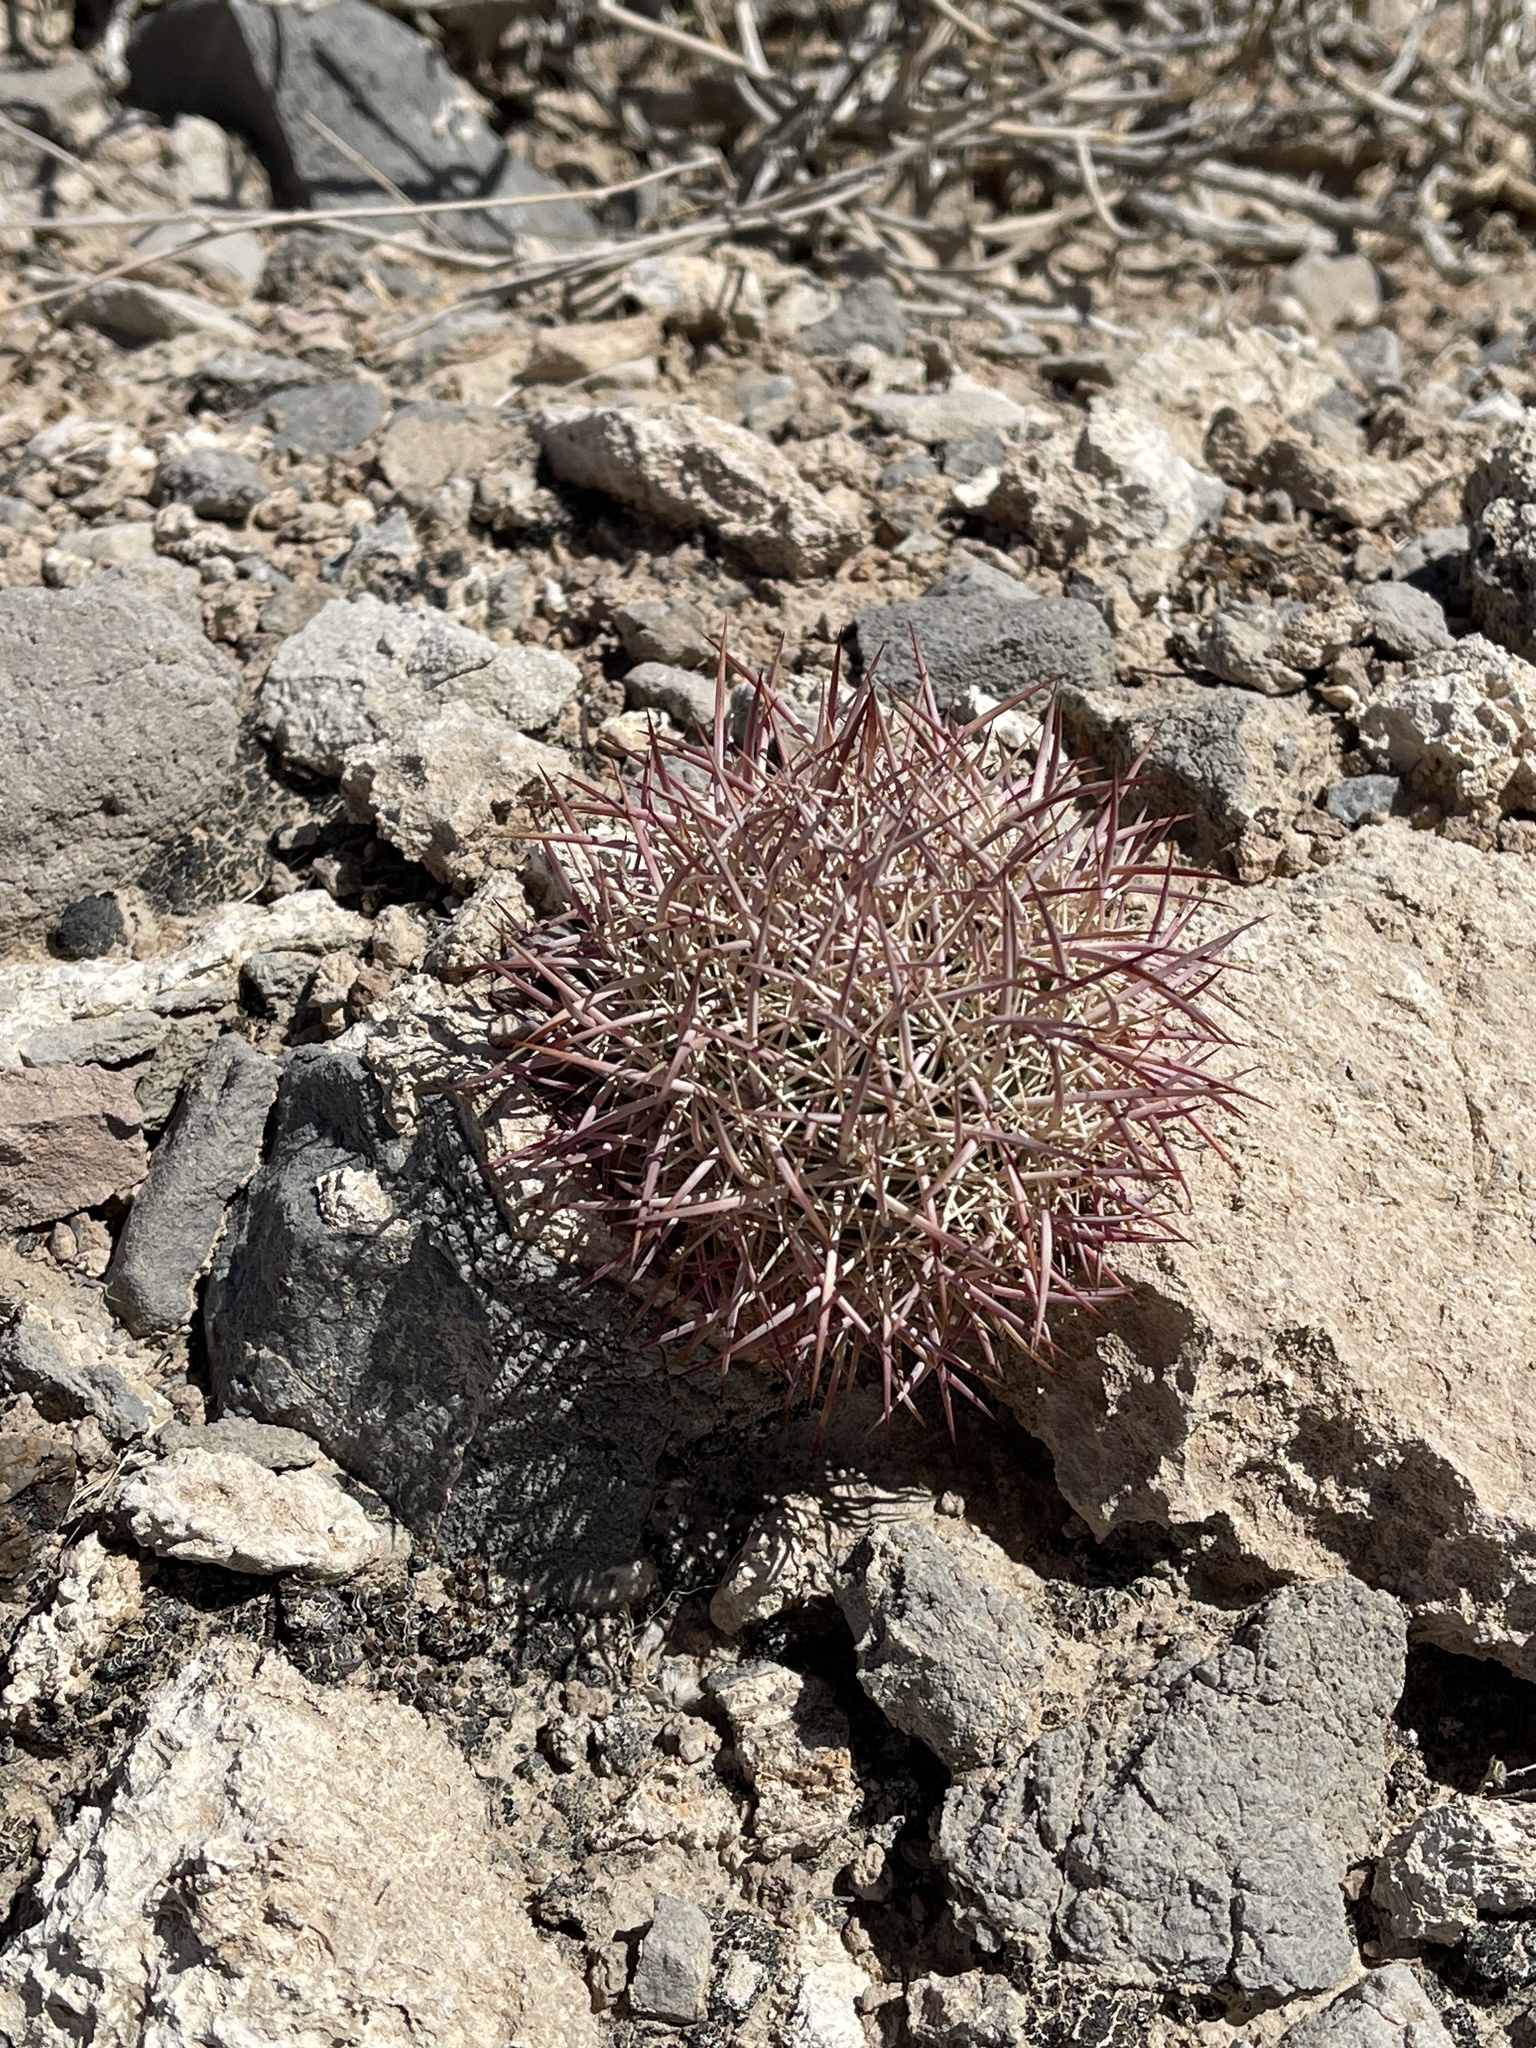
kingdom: Plantae
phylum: Tracheophyta
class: Magnoliopsida
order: Caryophyllales
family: Cactaceae
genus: Sclerocactus
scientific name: Sclerocactus johnsonii
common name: Eight-spine fishhook cactus
